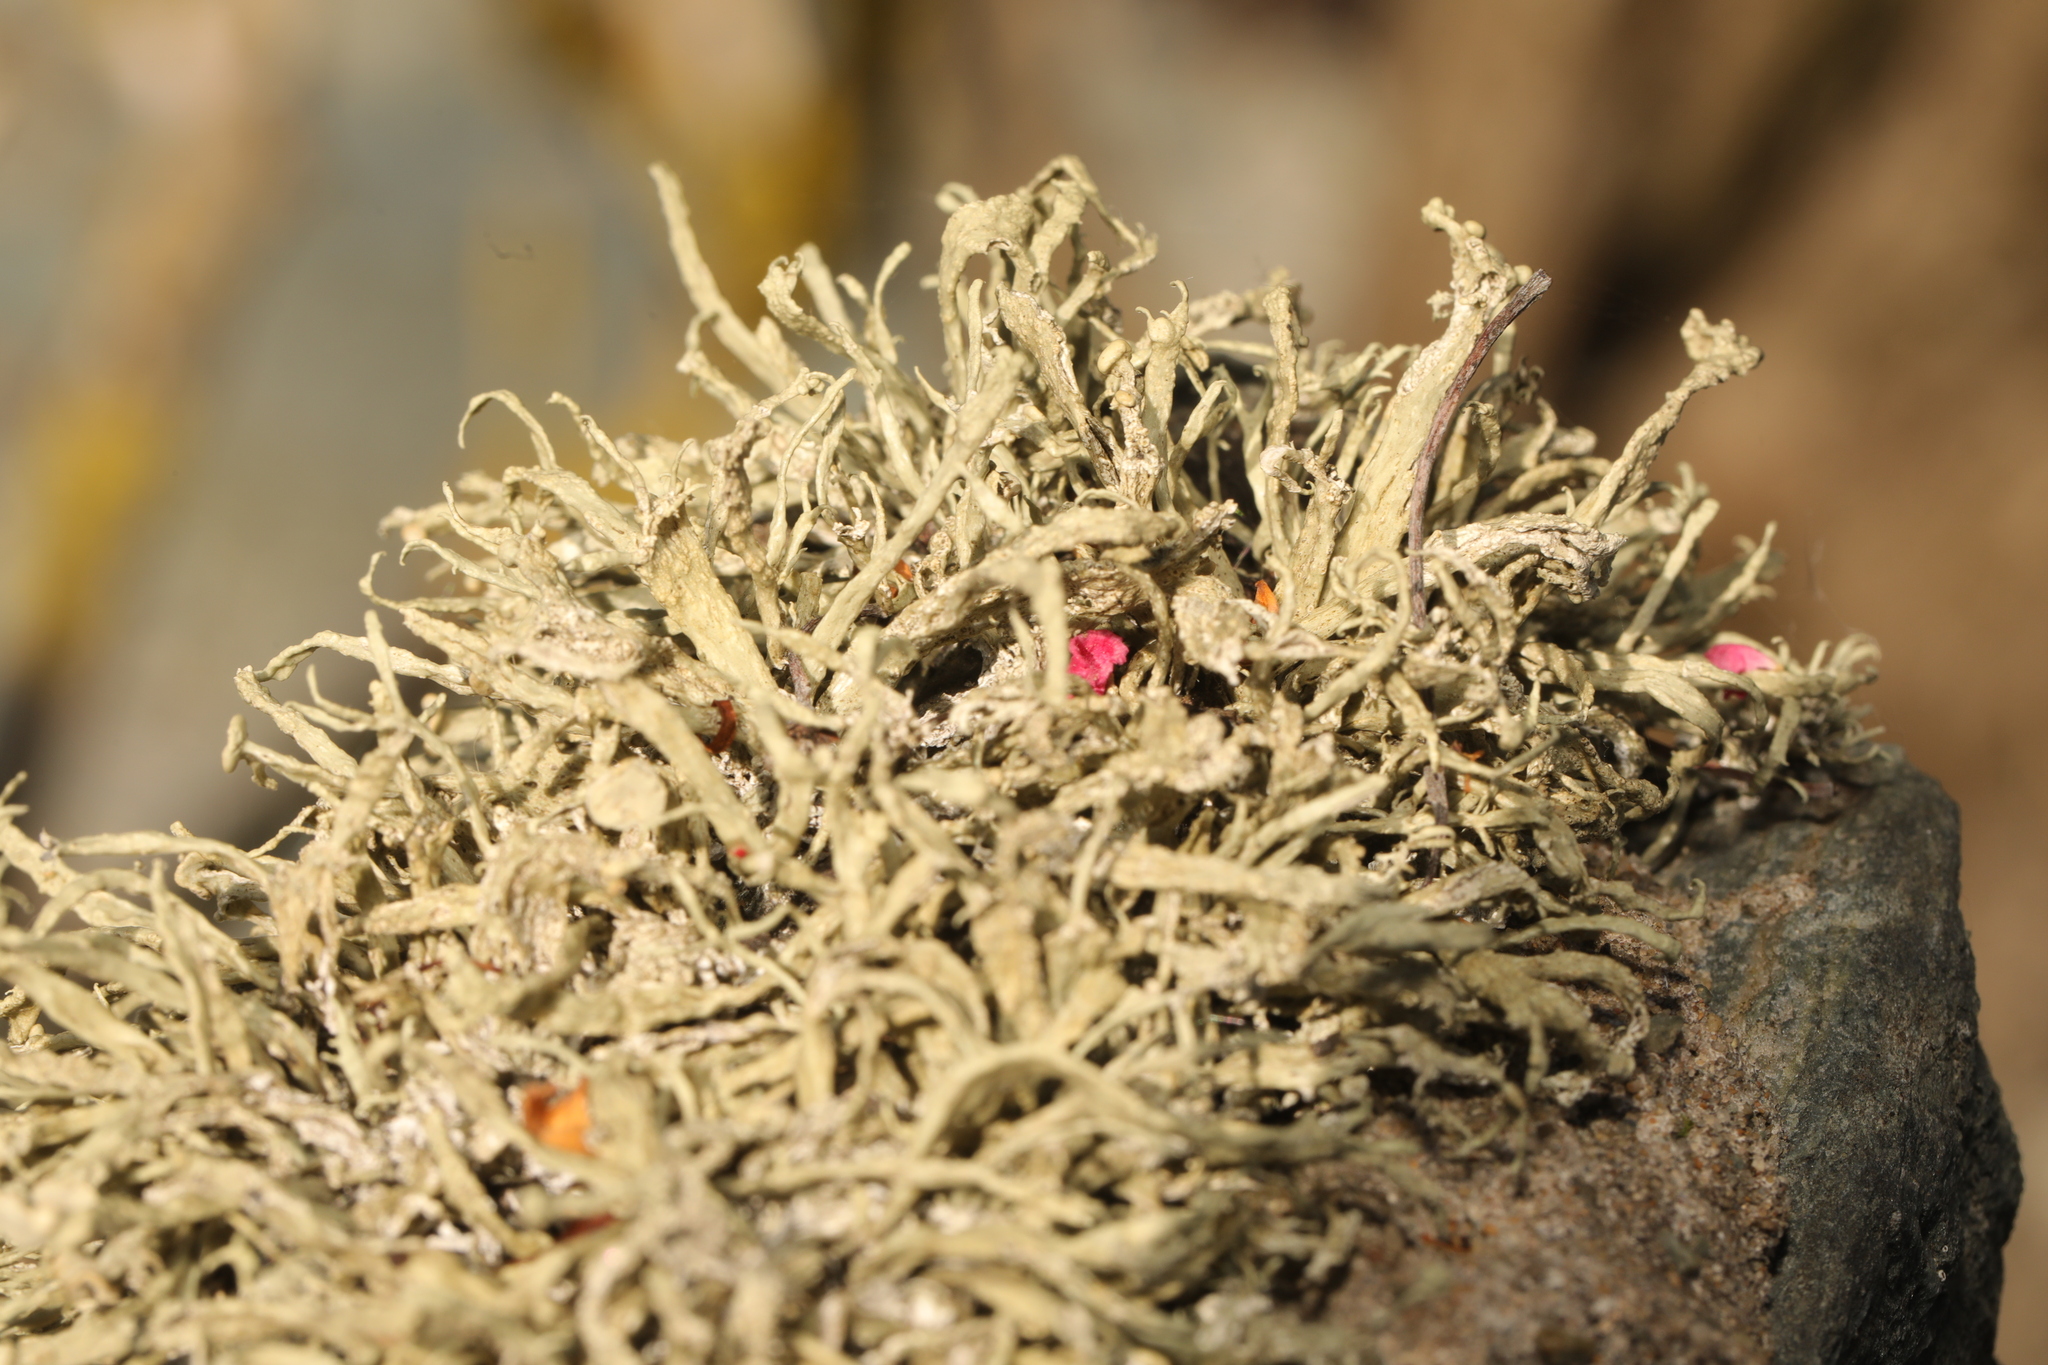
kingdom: Fungi
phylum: Ascomycota
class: Lecanoromycetes
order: Lecanorales
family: Ramalinaceae
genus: Ramalina
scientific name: Ramalina siliquosa
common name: Sea ivory
